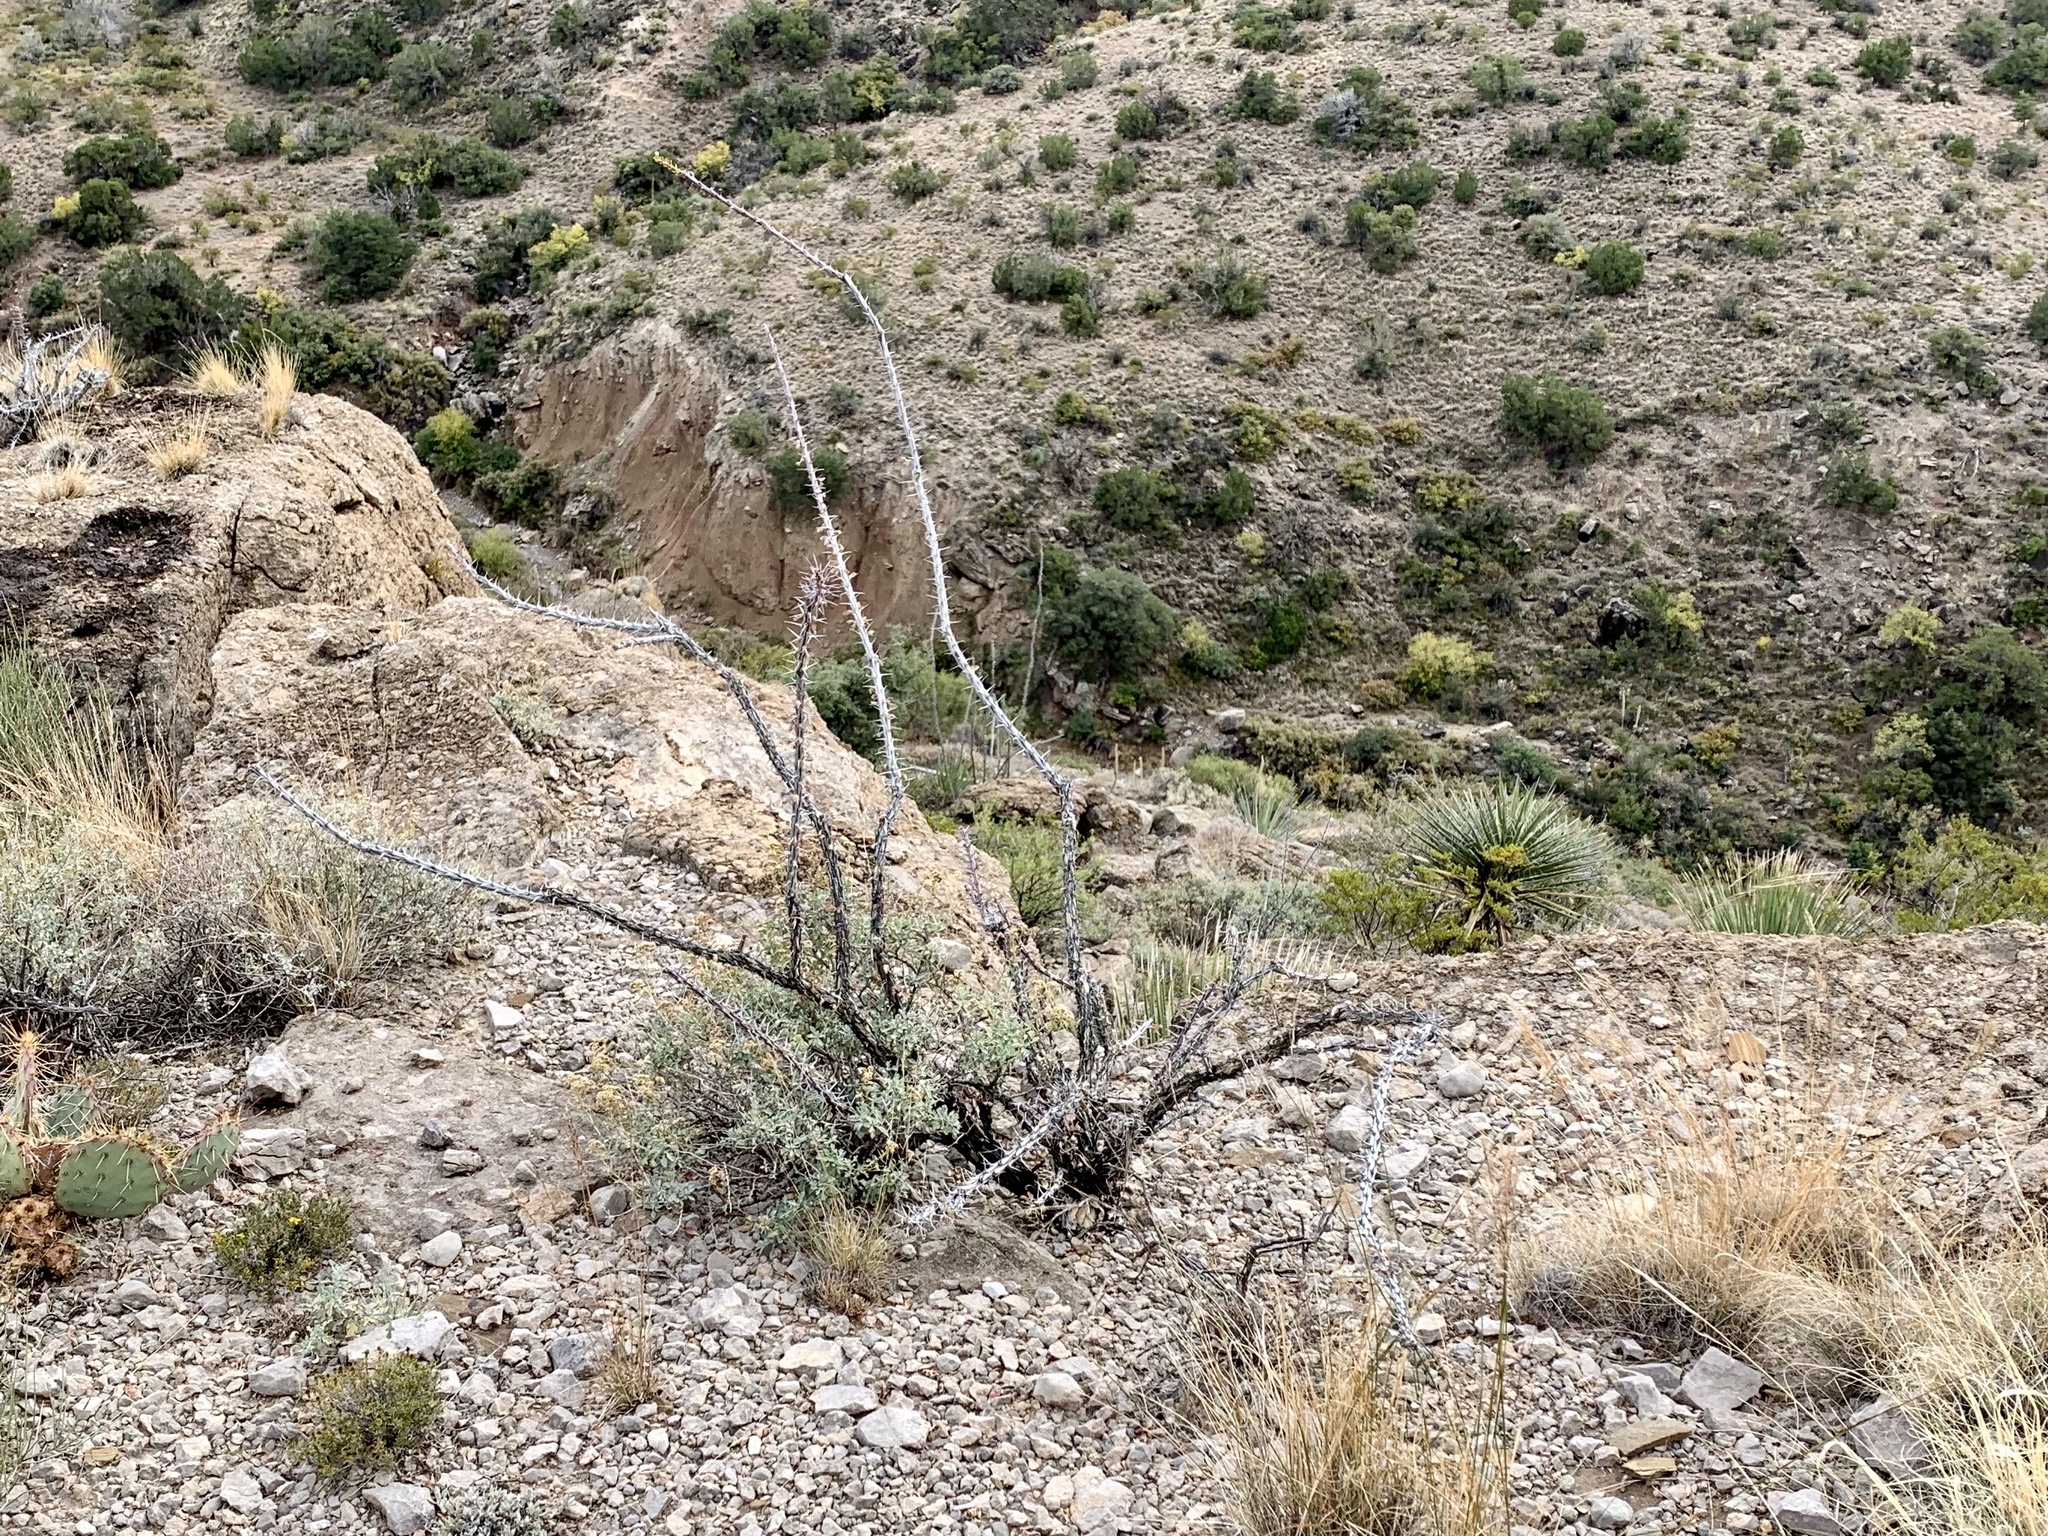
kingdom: Plantae
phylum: Tracheophyta
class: Magnoliopsida
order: Ericales
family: Fouquieriaceae
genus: Fouquieria
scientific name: Fouquieria splendens
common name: Vine-cactus
